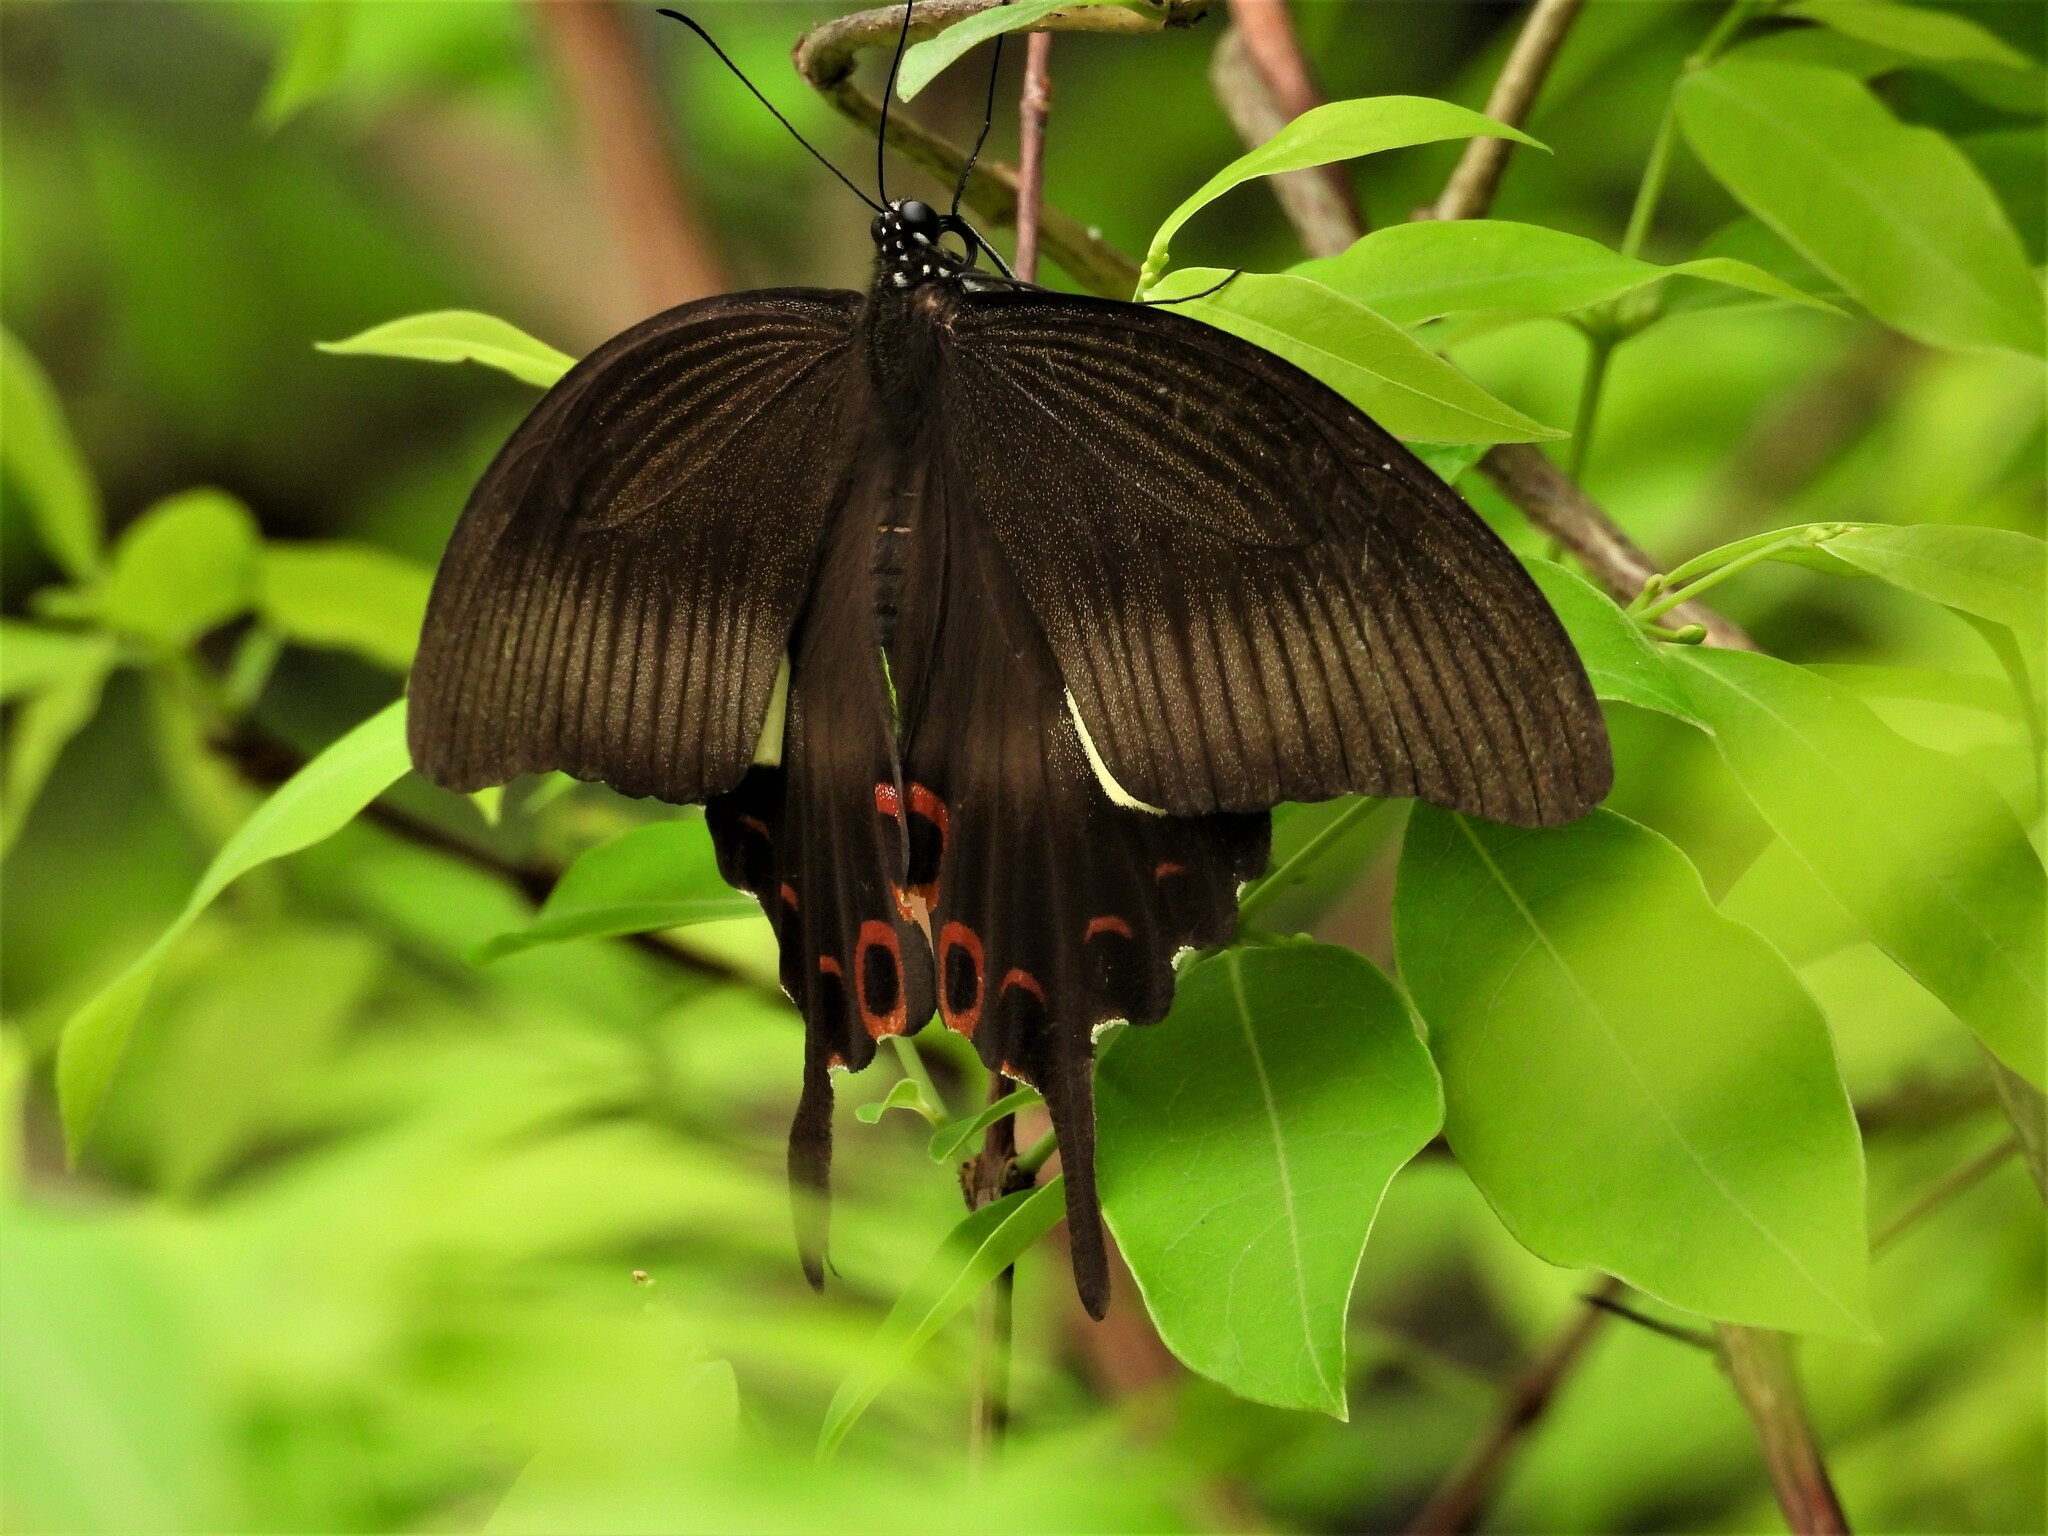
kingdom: Animalia
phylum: Arthropoda
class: Insecta
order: Lepidoptera
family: Papilionidae
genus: Papilio
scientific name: Papilio helenus
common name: Red helen
